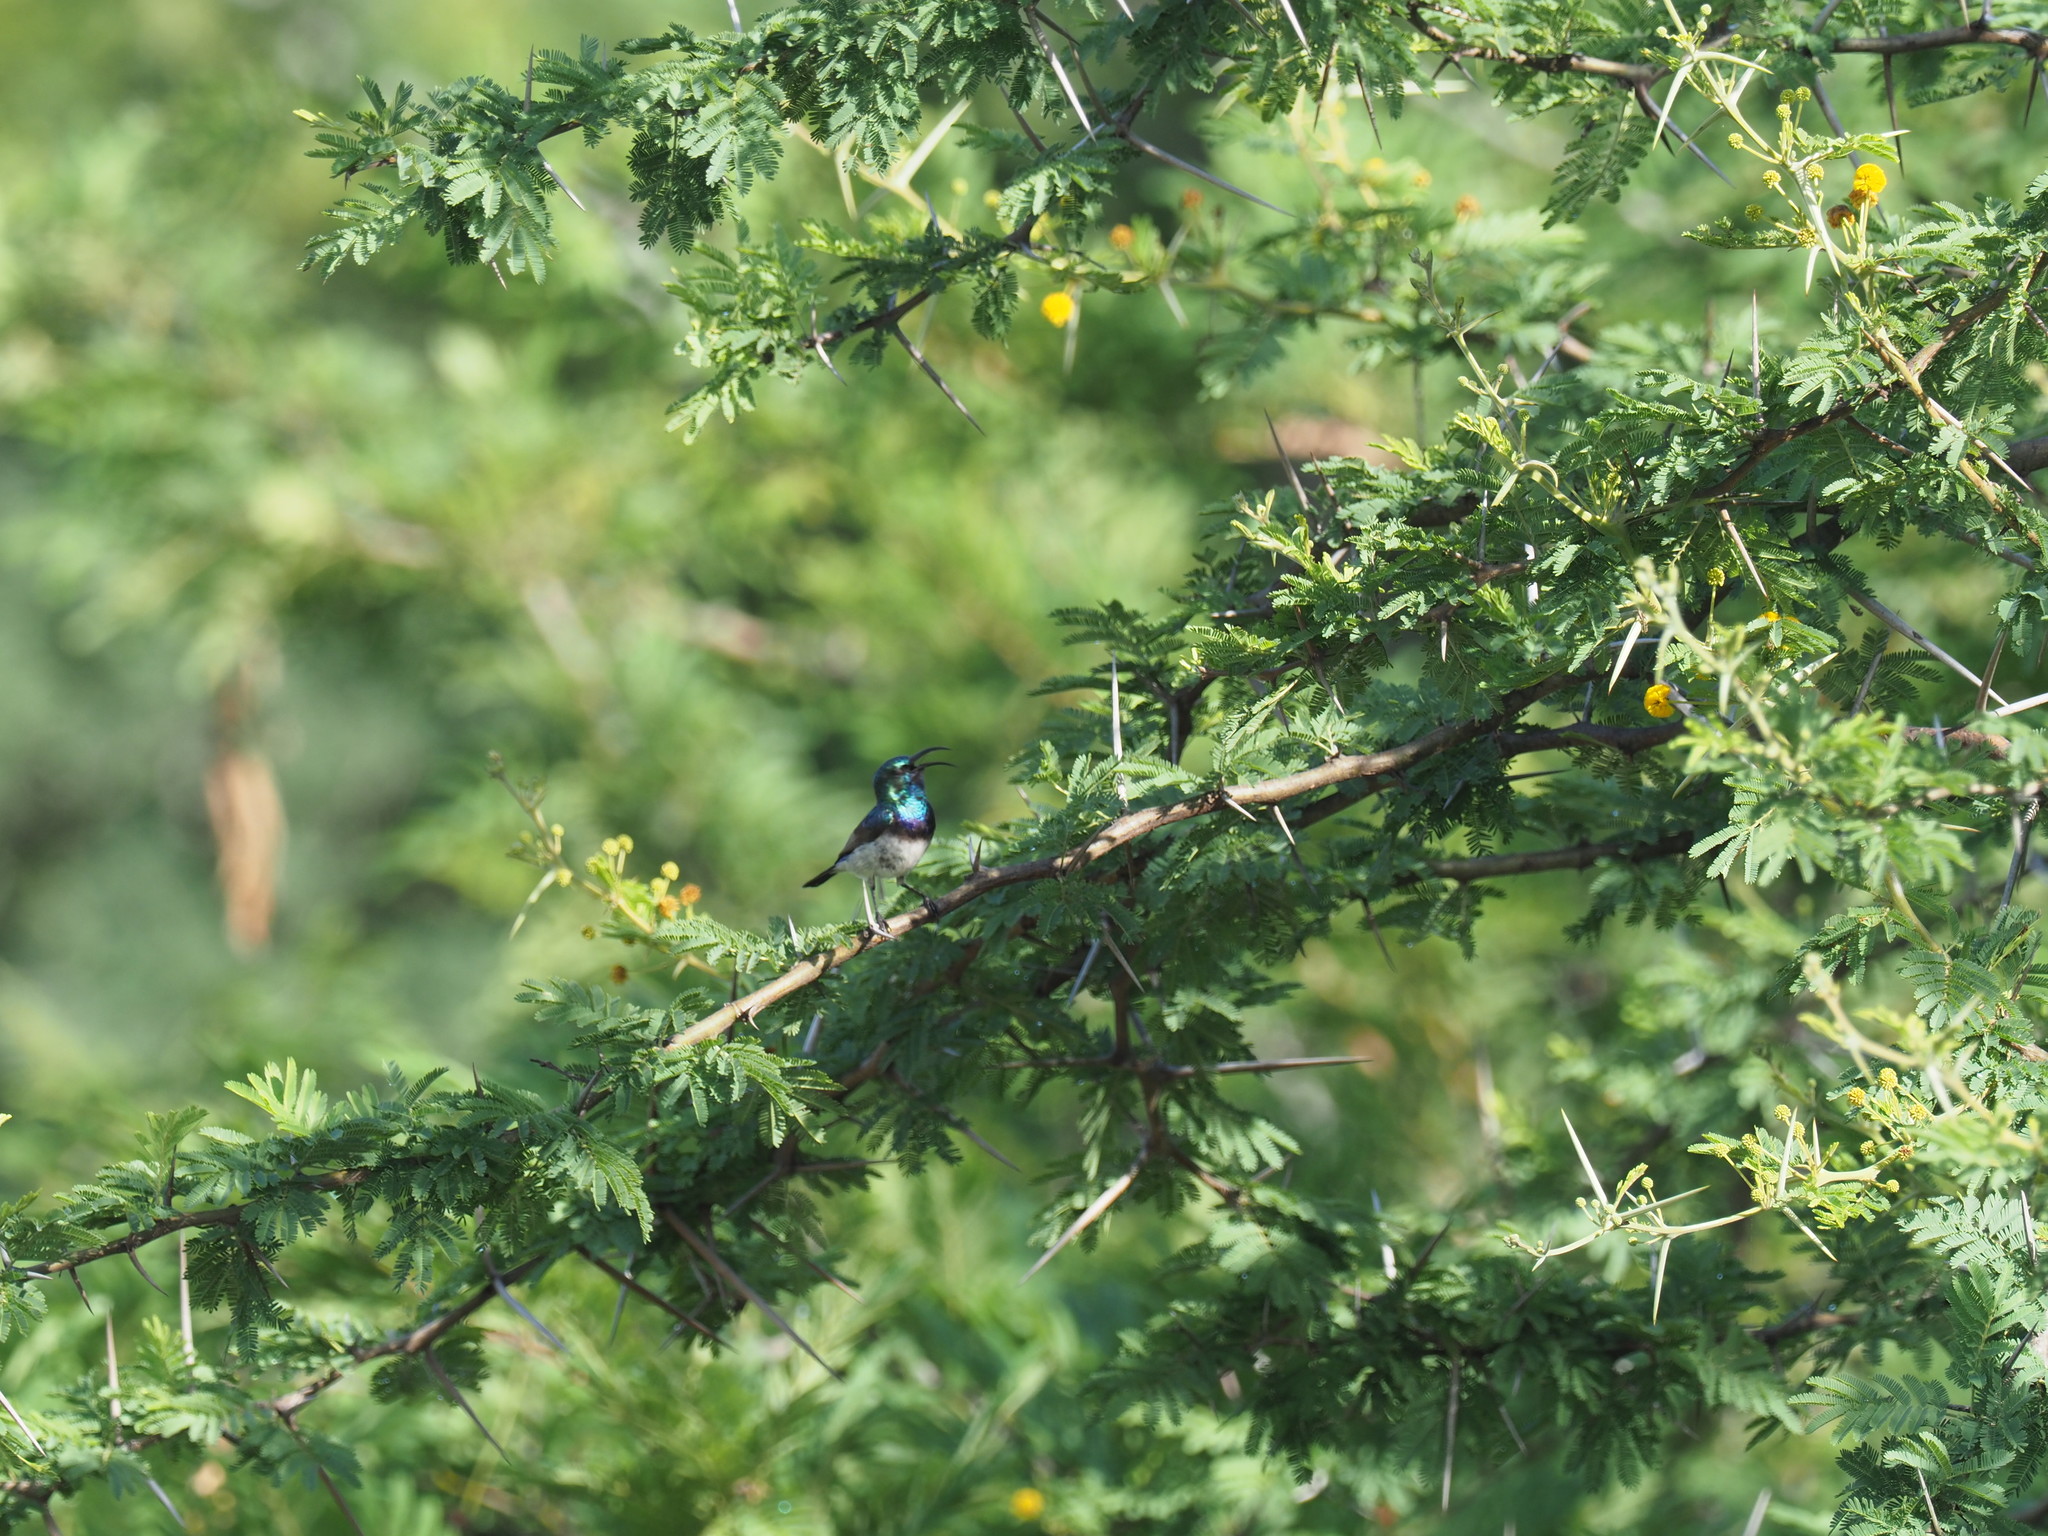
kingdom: Animalia
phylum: Chordata
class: Aves
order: Passeriformes
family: Nectariniidae
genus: Cinnyris
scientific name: Cinnyris talatala
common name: White-bellied sunbird
